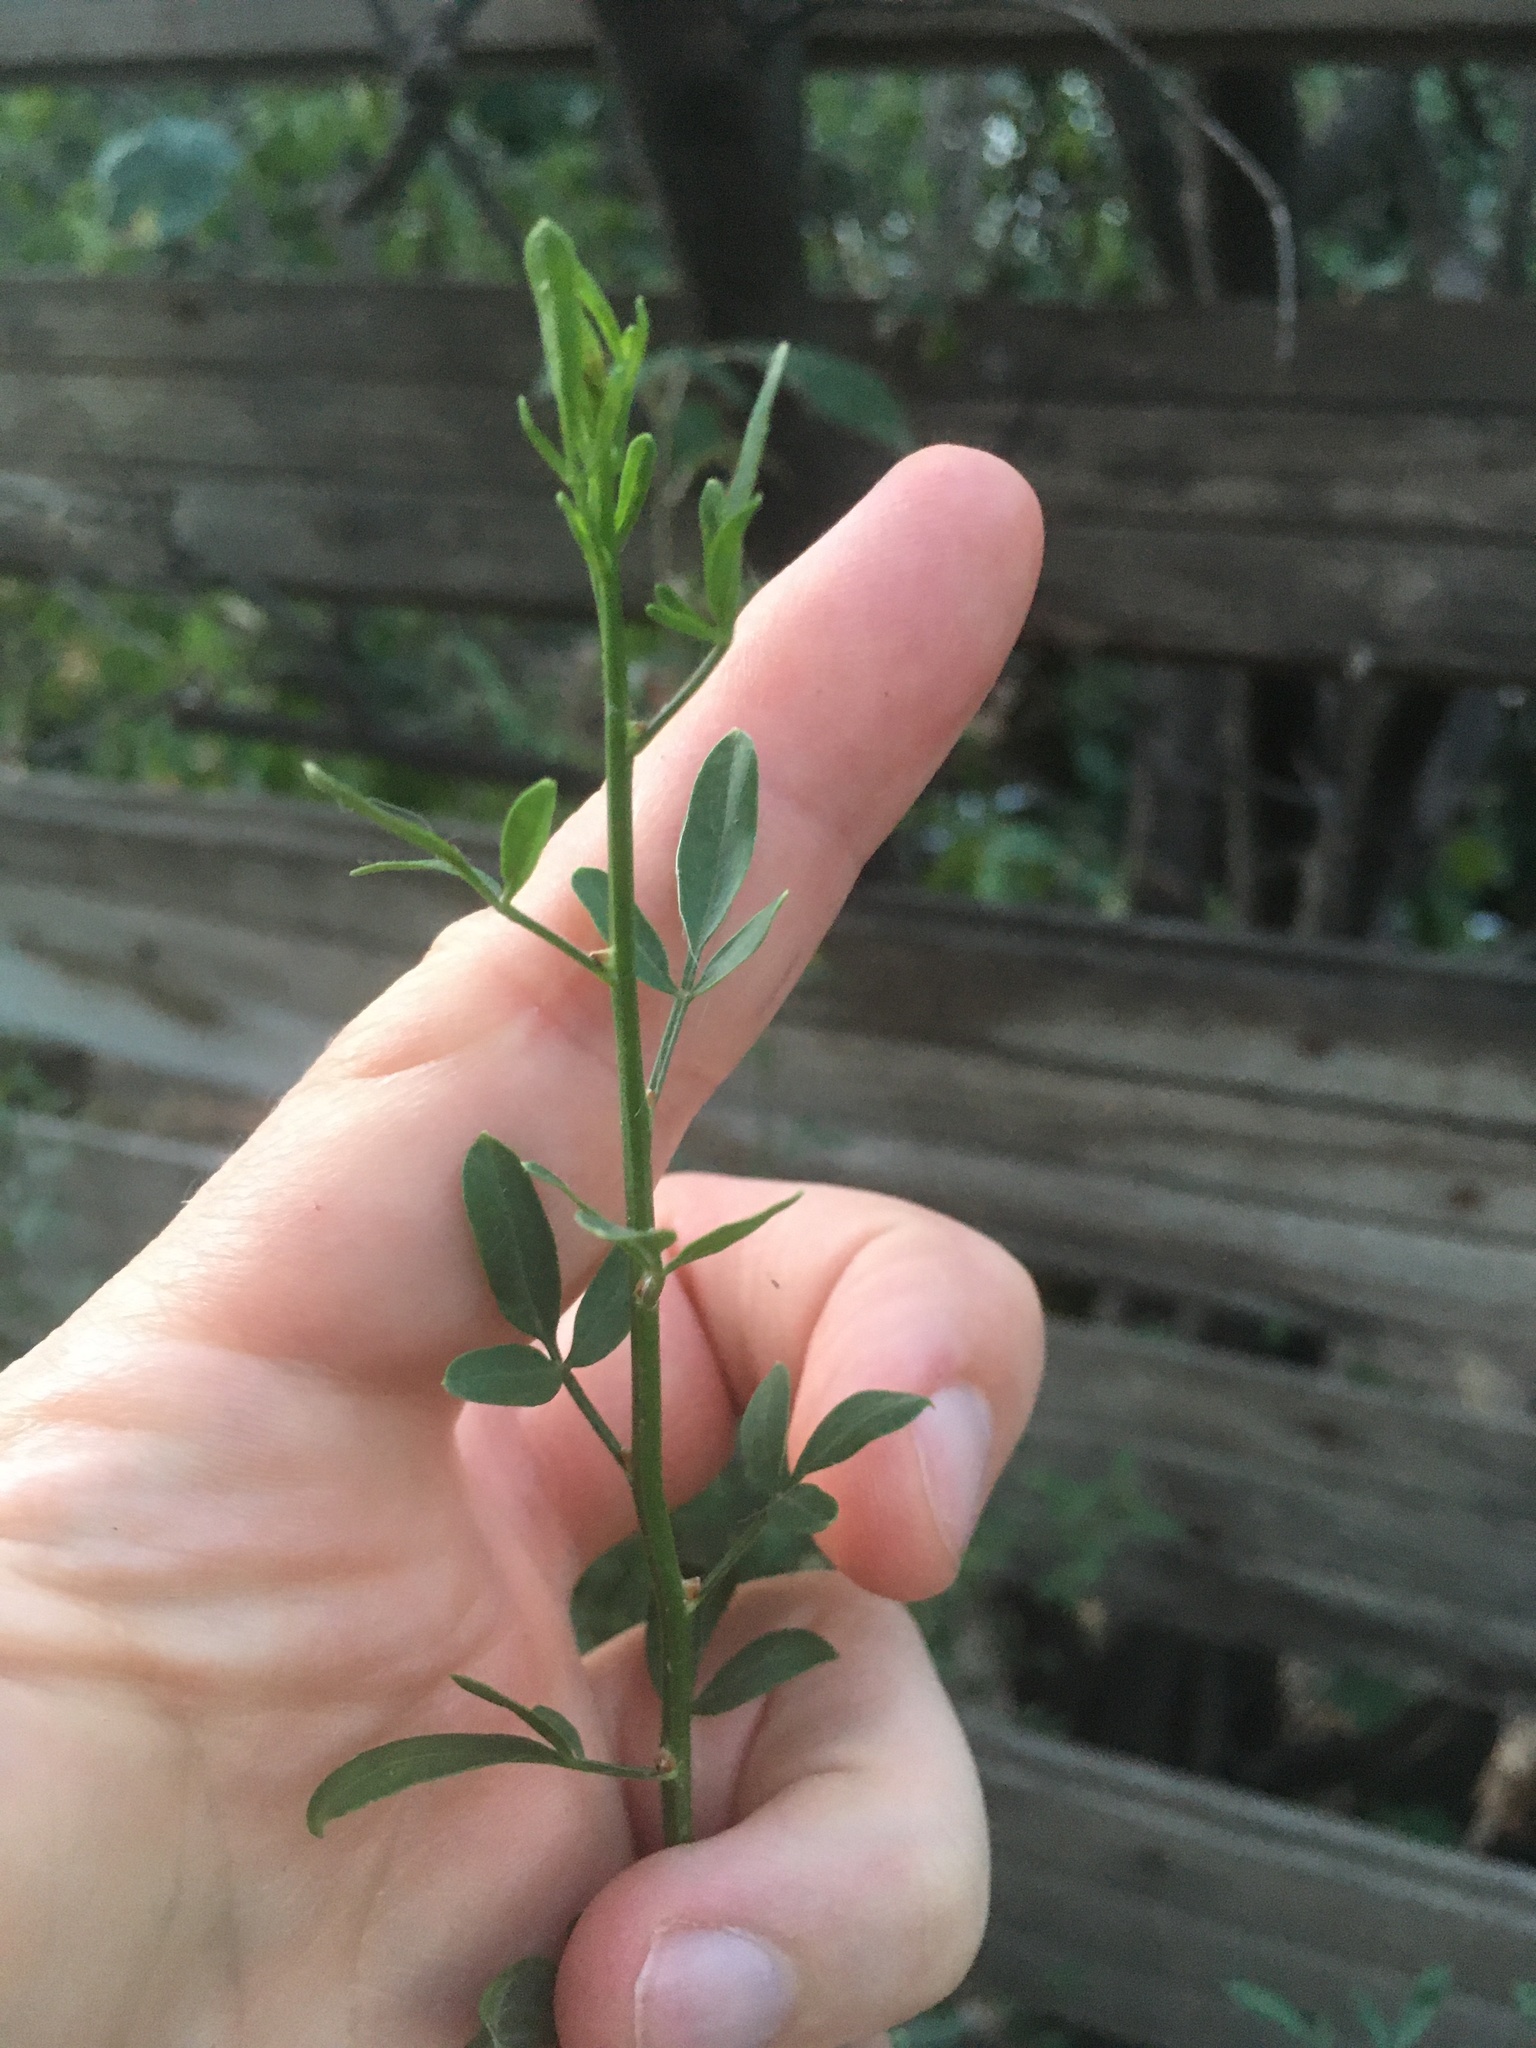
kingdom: Plantae
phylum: Tracheophyta
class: Magnoliopsida
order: Lamiales
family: Oleaceae
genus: Chrysojasminum
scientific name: Chrysojasminum fruticans
